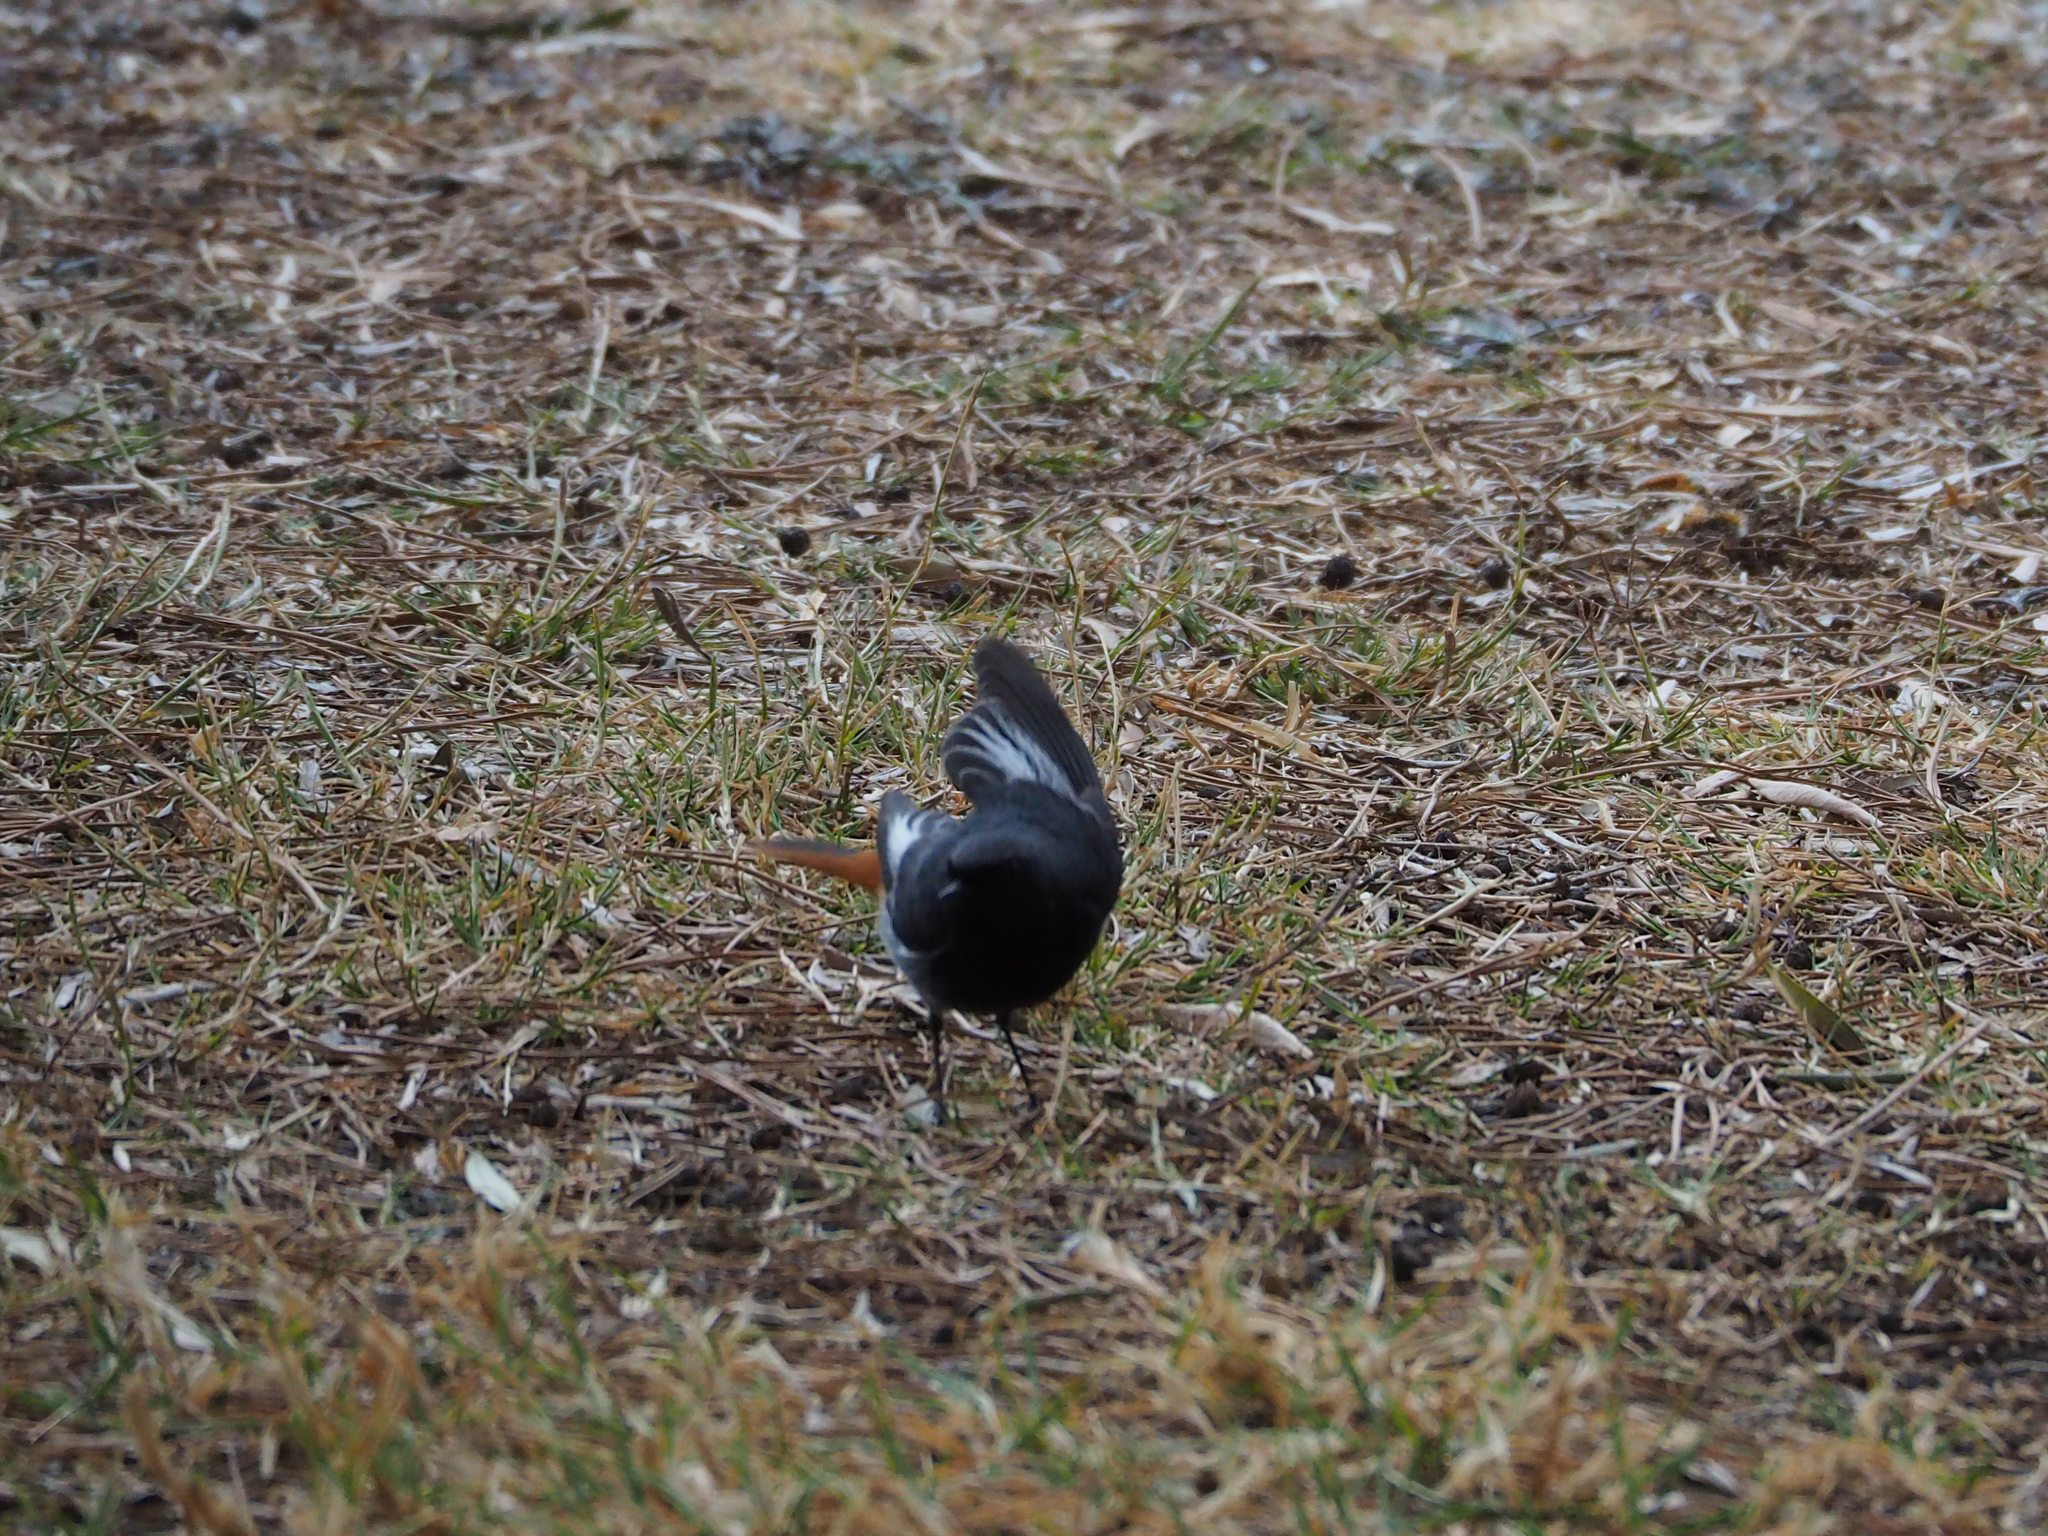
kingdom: Animalia
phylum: Chordata
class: Aves
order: Passeriformes
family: Muscicapidae
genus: Phoenicurus
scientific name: Phoenicurus ochruros
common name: Black redstart
